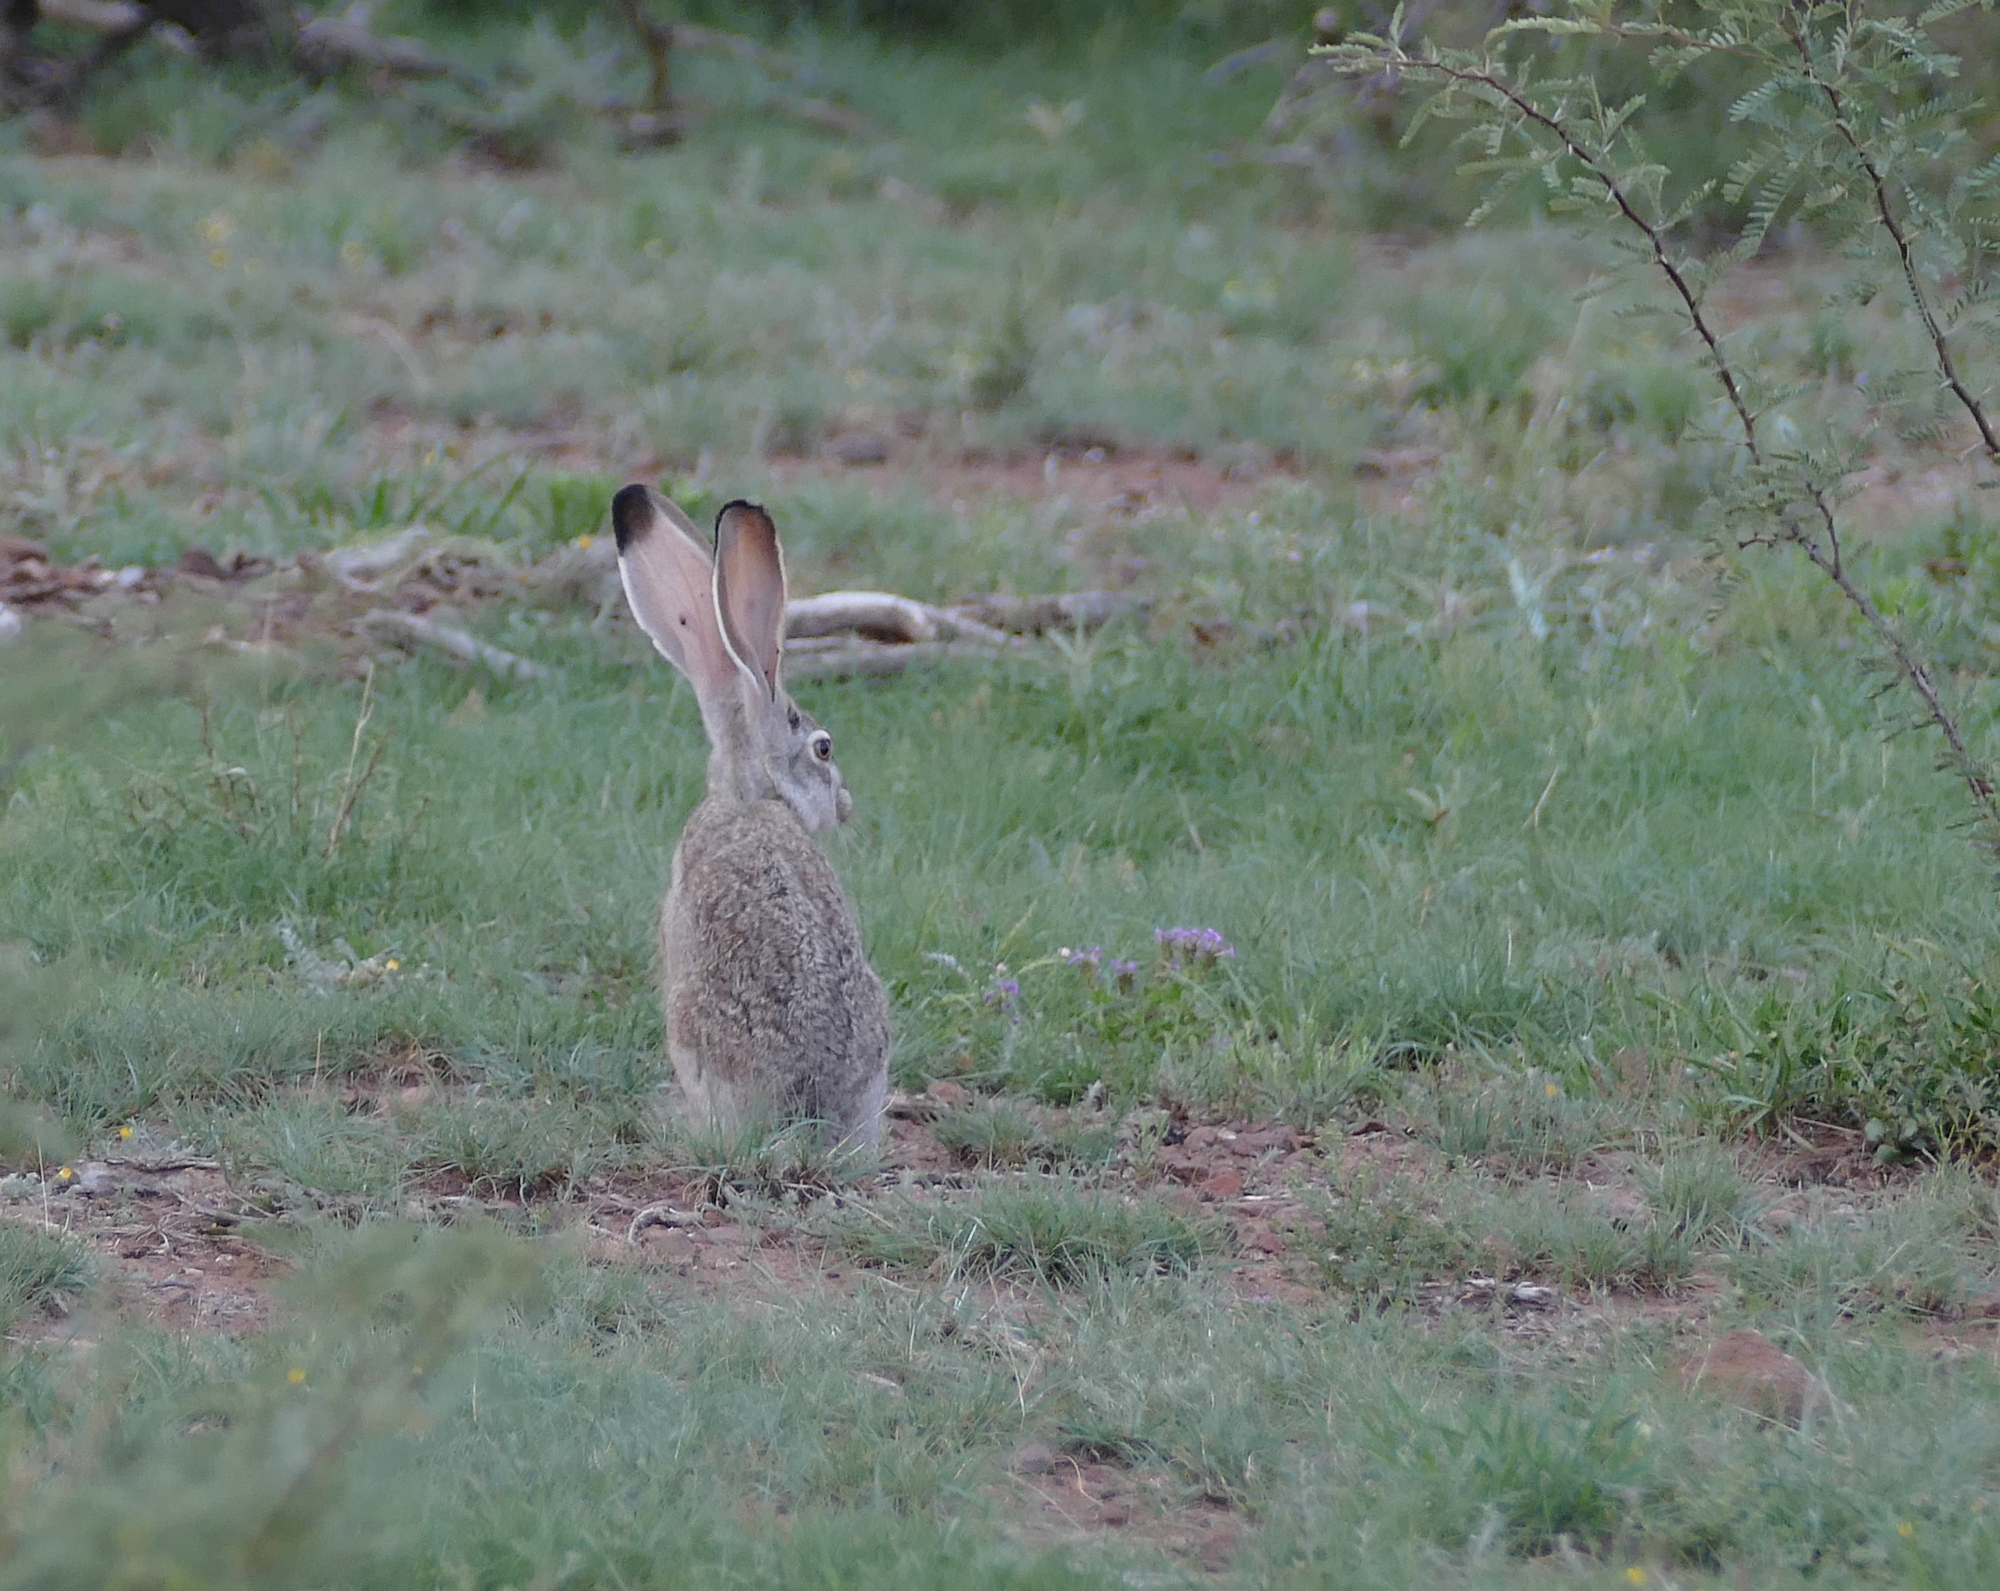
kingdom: Animalia
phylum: Chordata
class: Mammalia
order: Lagomorpha
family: Leporidae
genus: Lepus
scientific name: Lepus californicus
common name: Black-tailed jackrabbit
